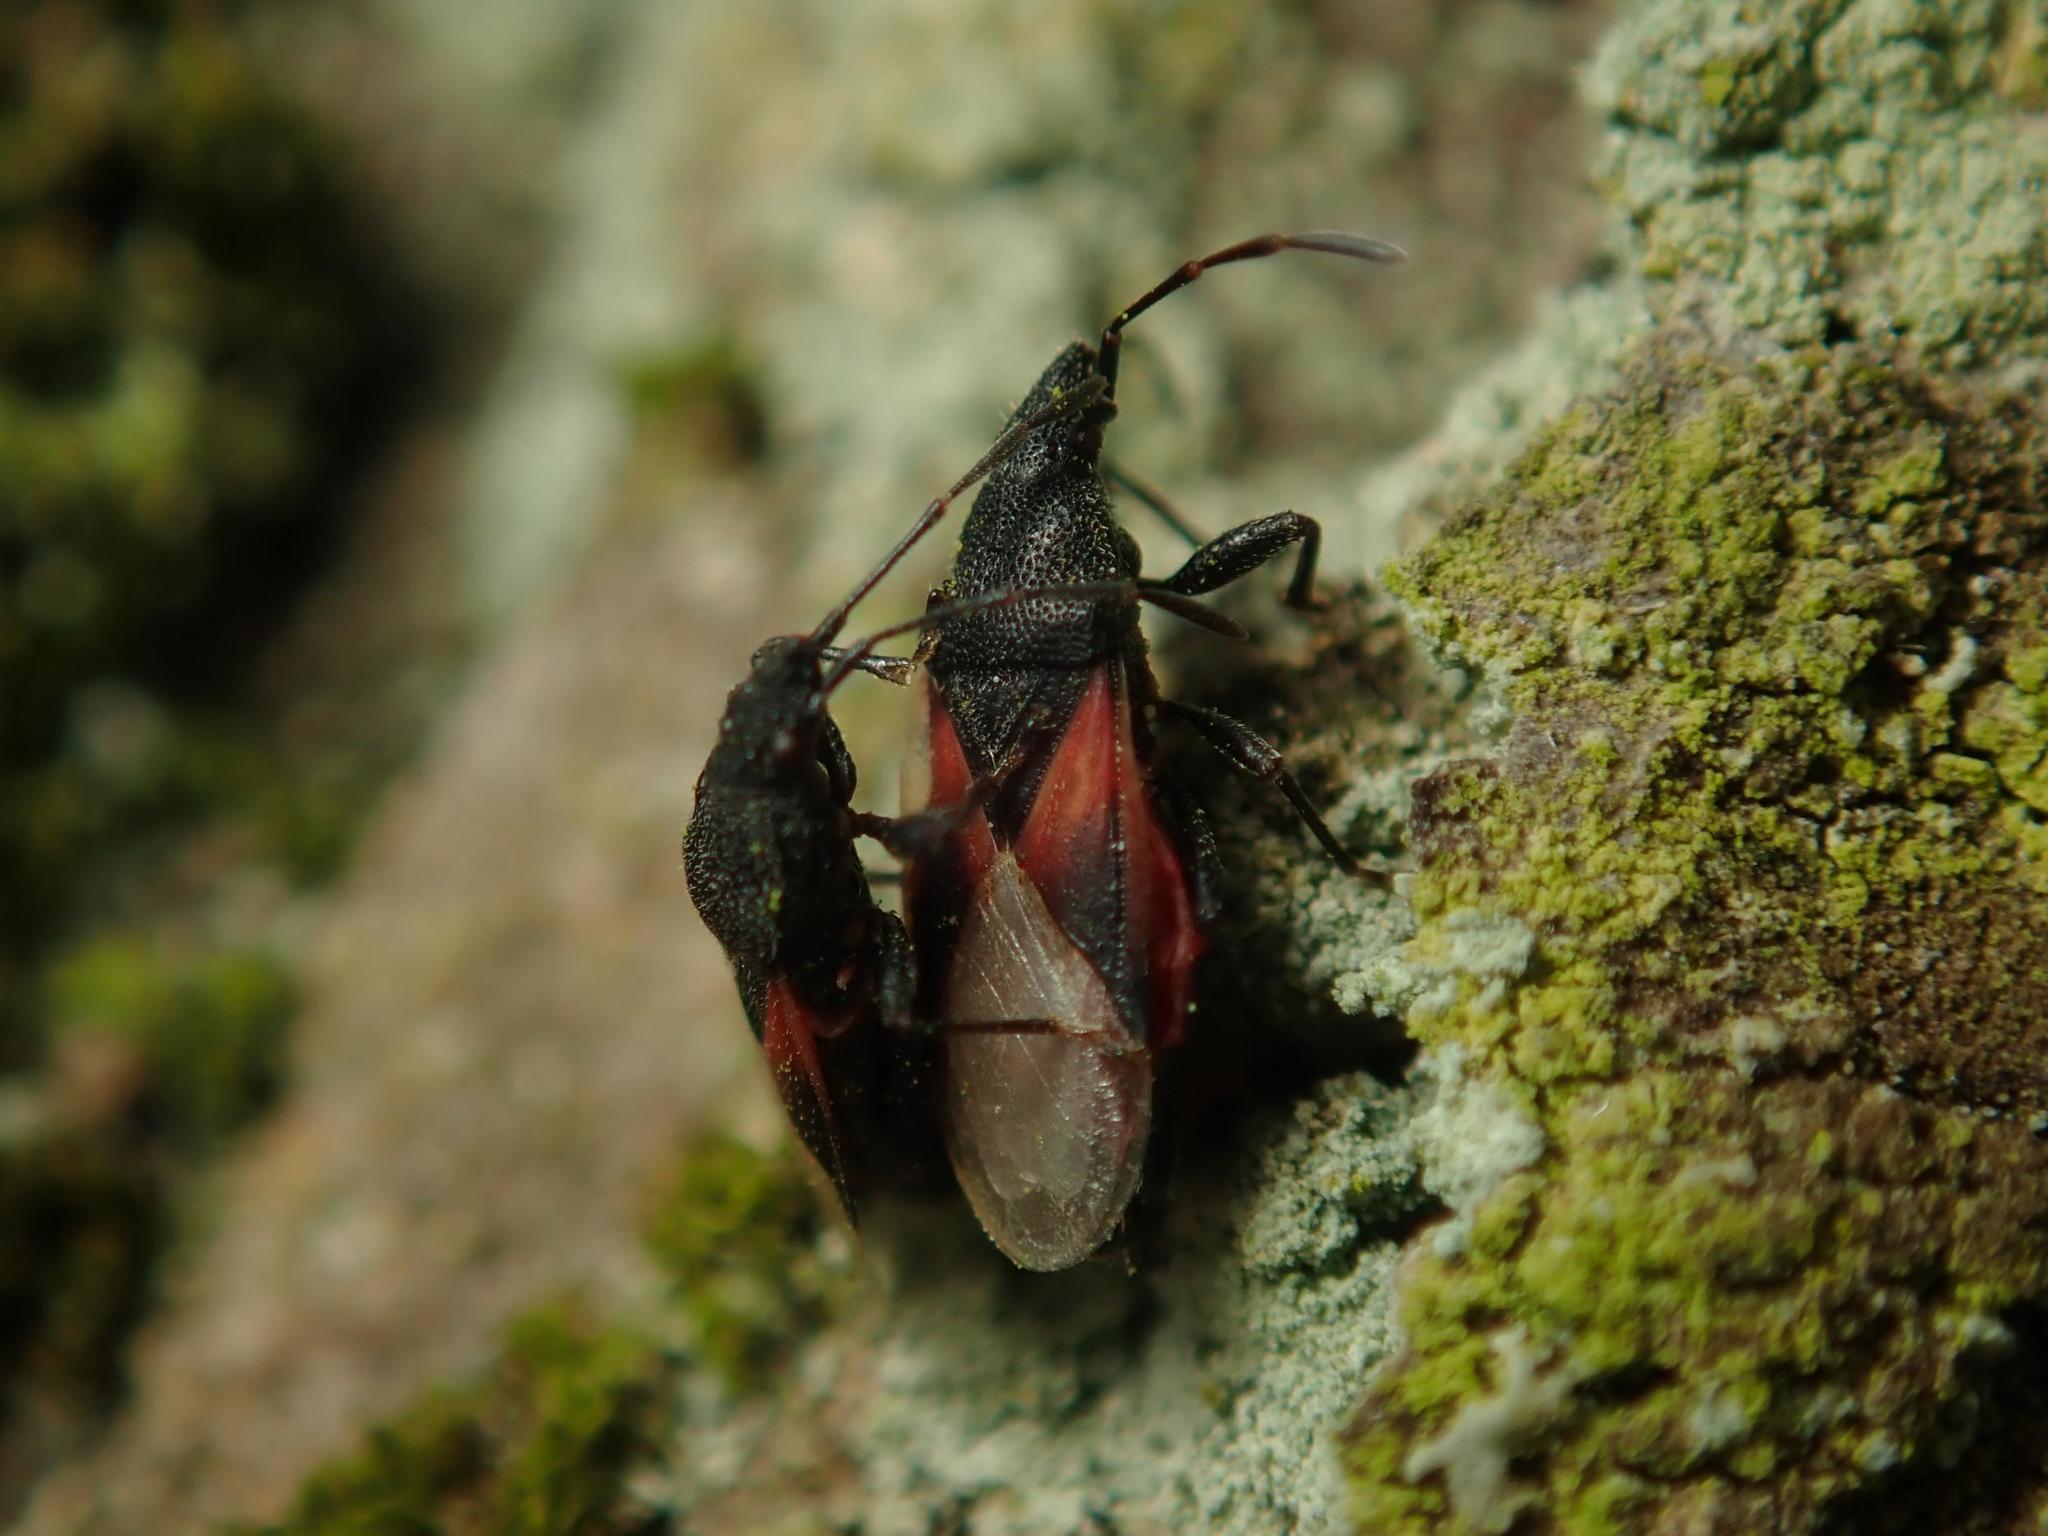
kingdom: Animalia
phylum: Arthropoda
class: Insecta
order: Hemiptera
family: Oxycarenidae
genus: Oxycarenus
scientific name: Oxycarenus lavaterae
